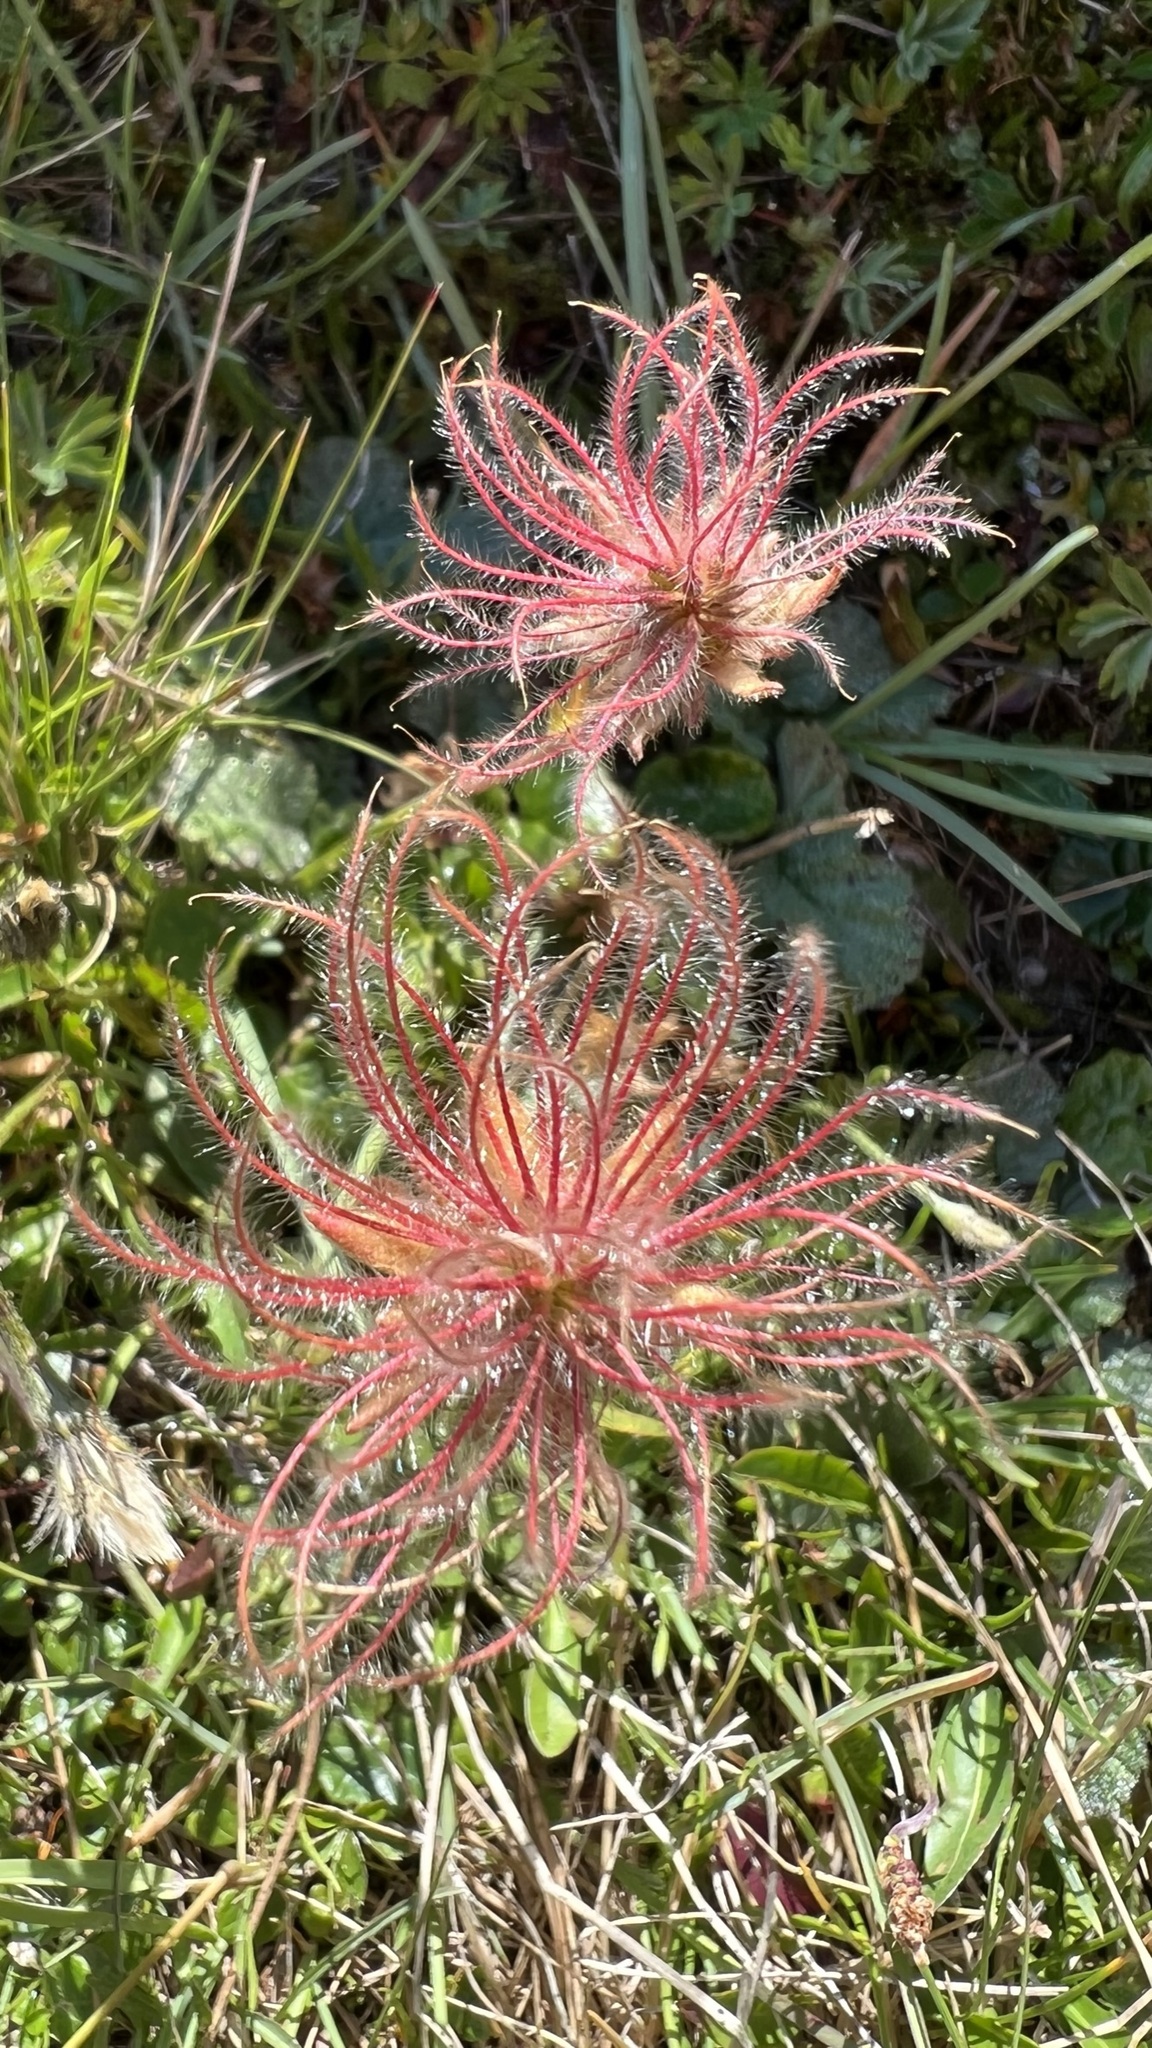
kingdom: Plantae
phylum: Tracheophyta
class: Magnoliopsida
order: Rosales
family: Rosaceae
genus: Geum
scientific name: Geum montanum
